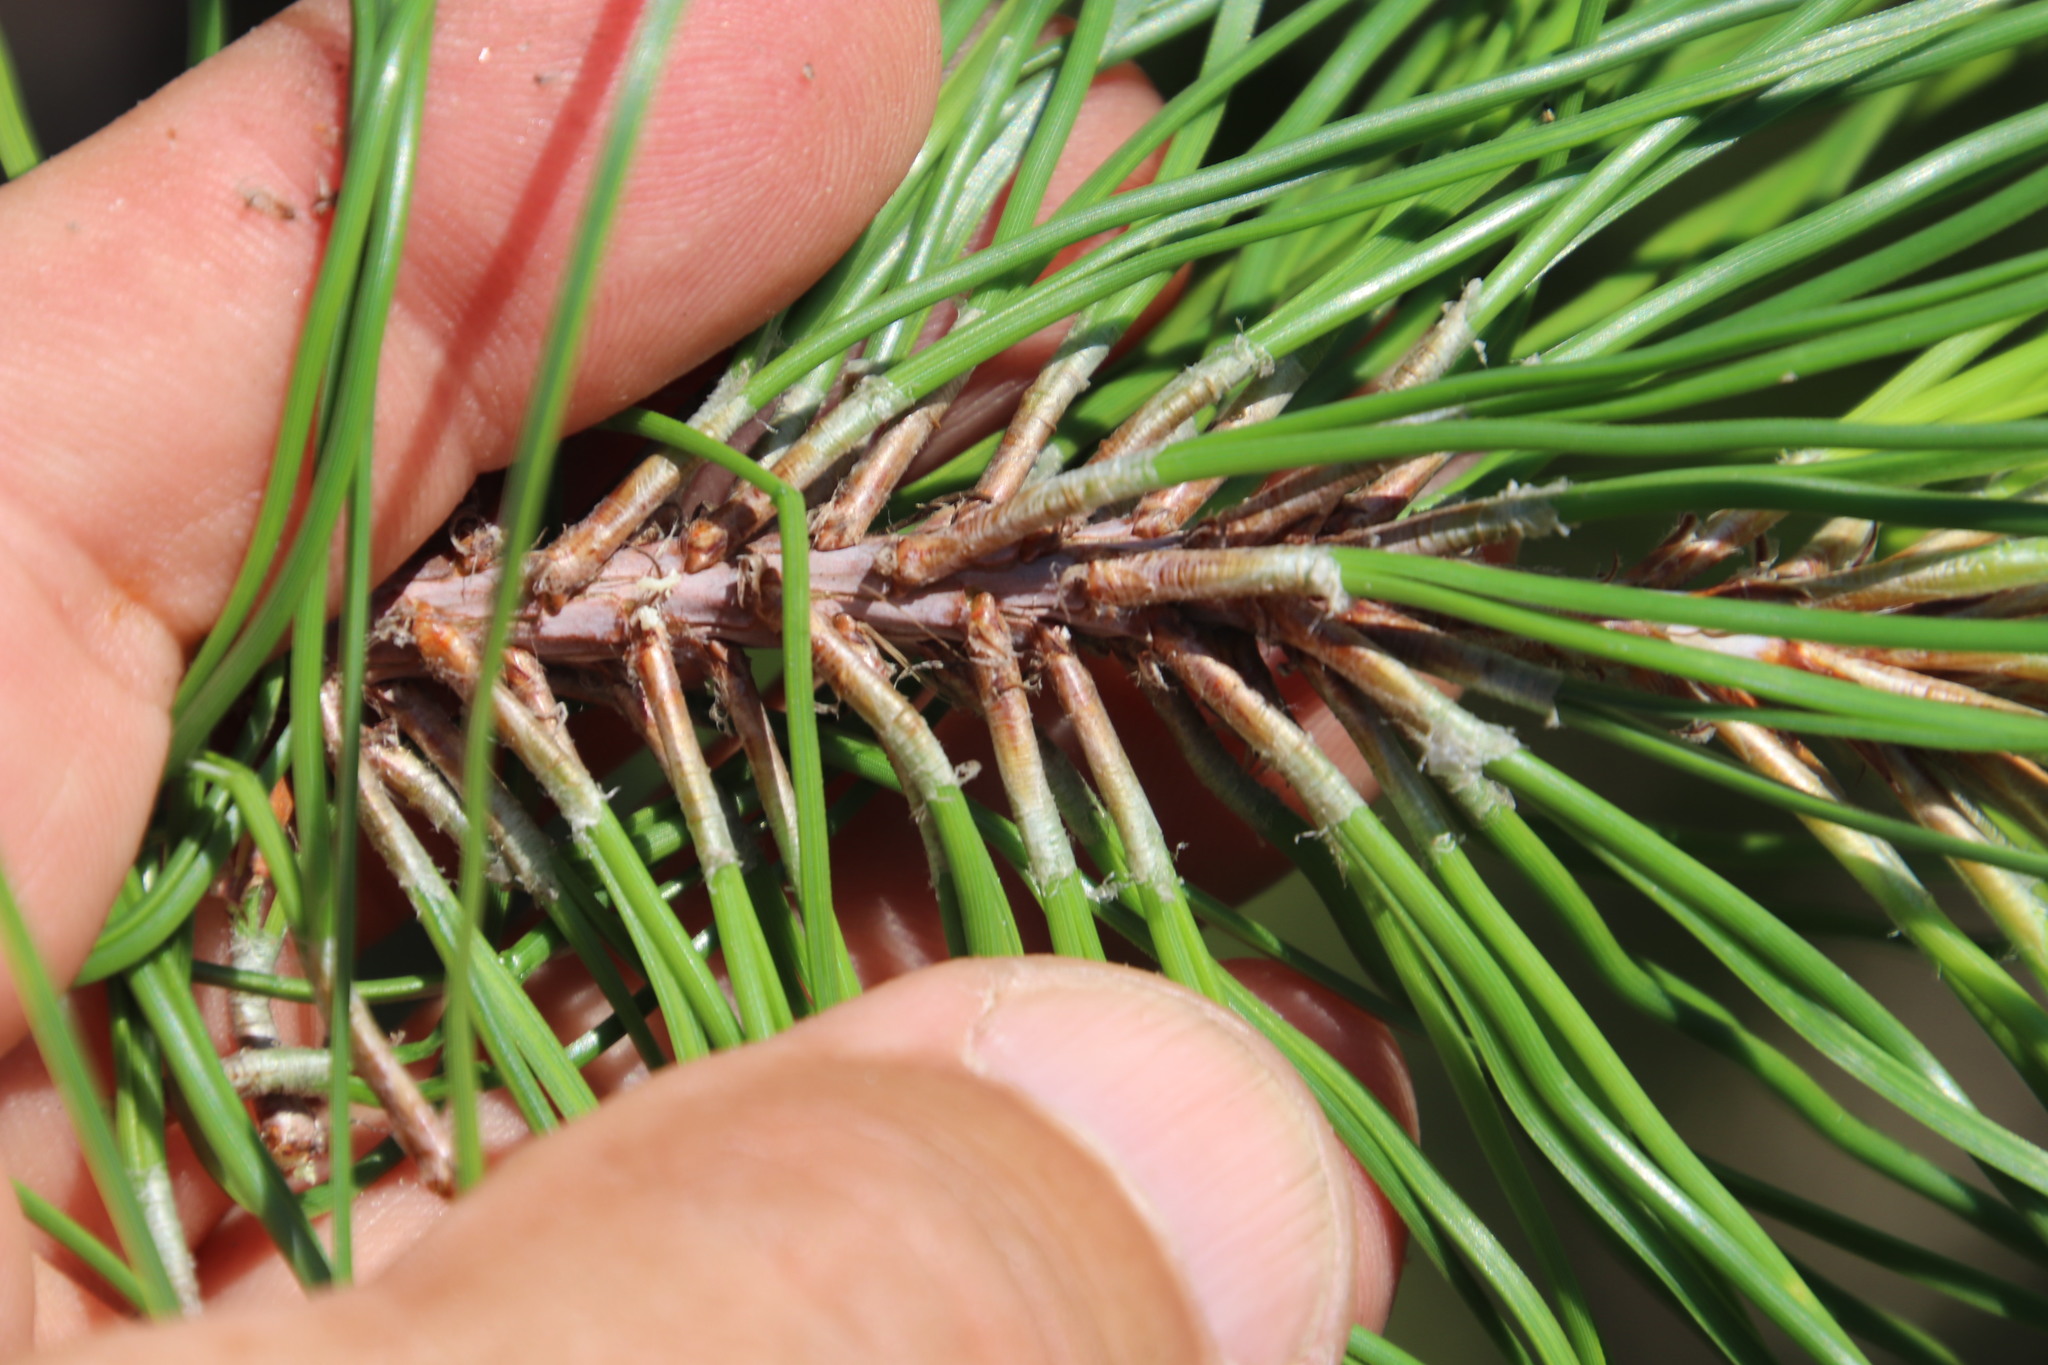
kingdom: Plantae
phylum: Tracheophyta
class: Pinopsida
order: Pinales
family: Pinaceae
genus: Pinus
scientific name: Pinus elliottii
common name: Slash pine
